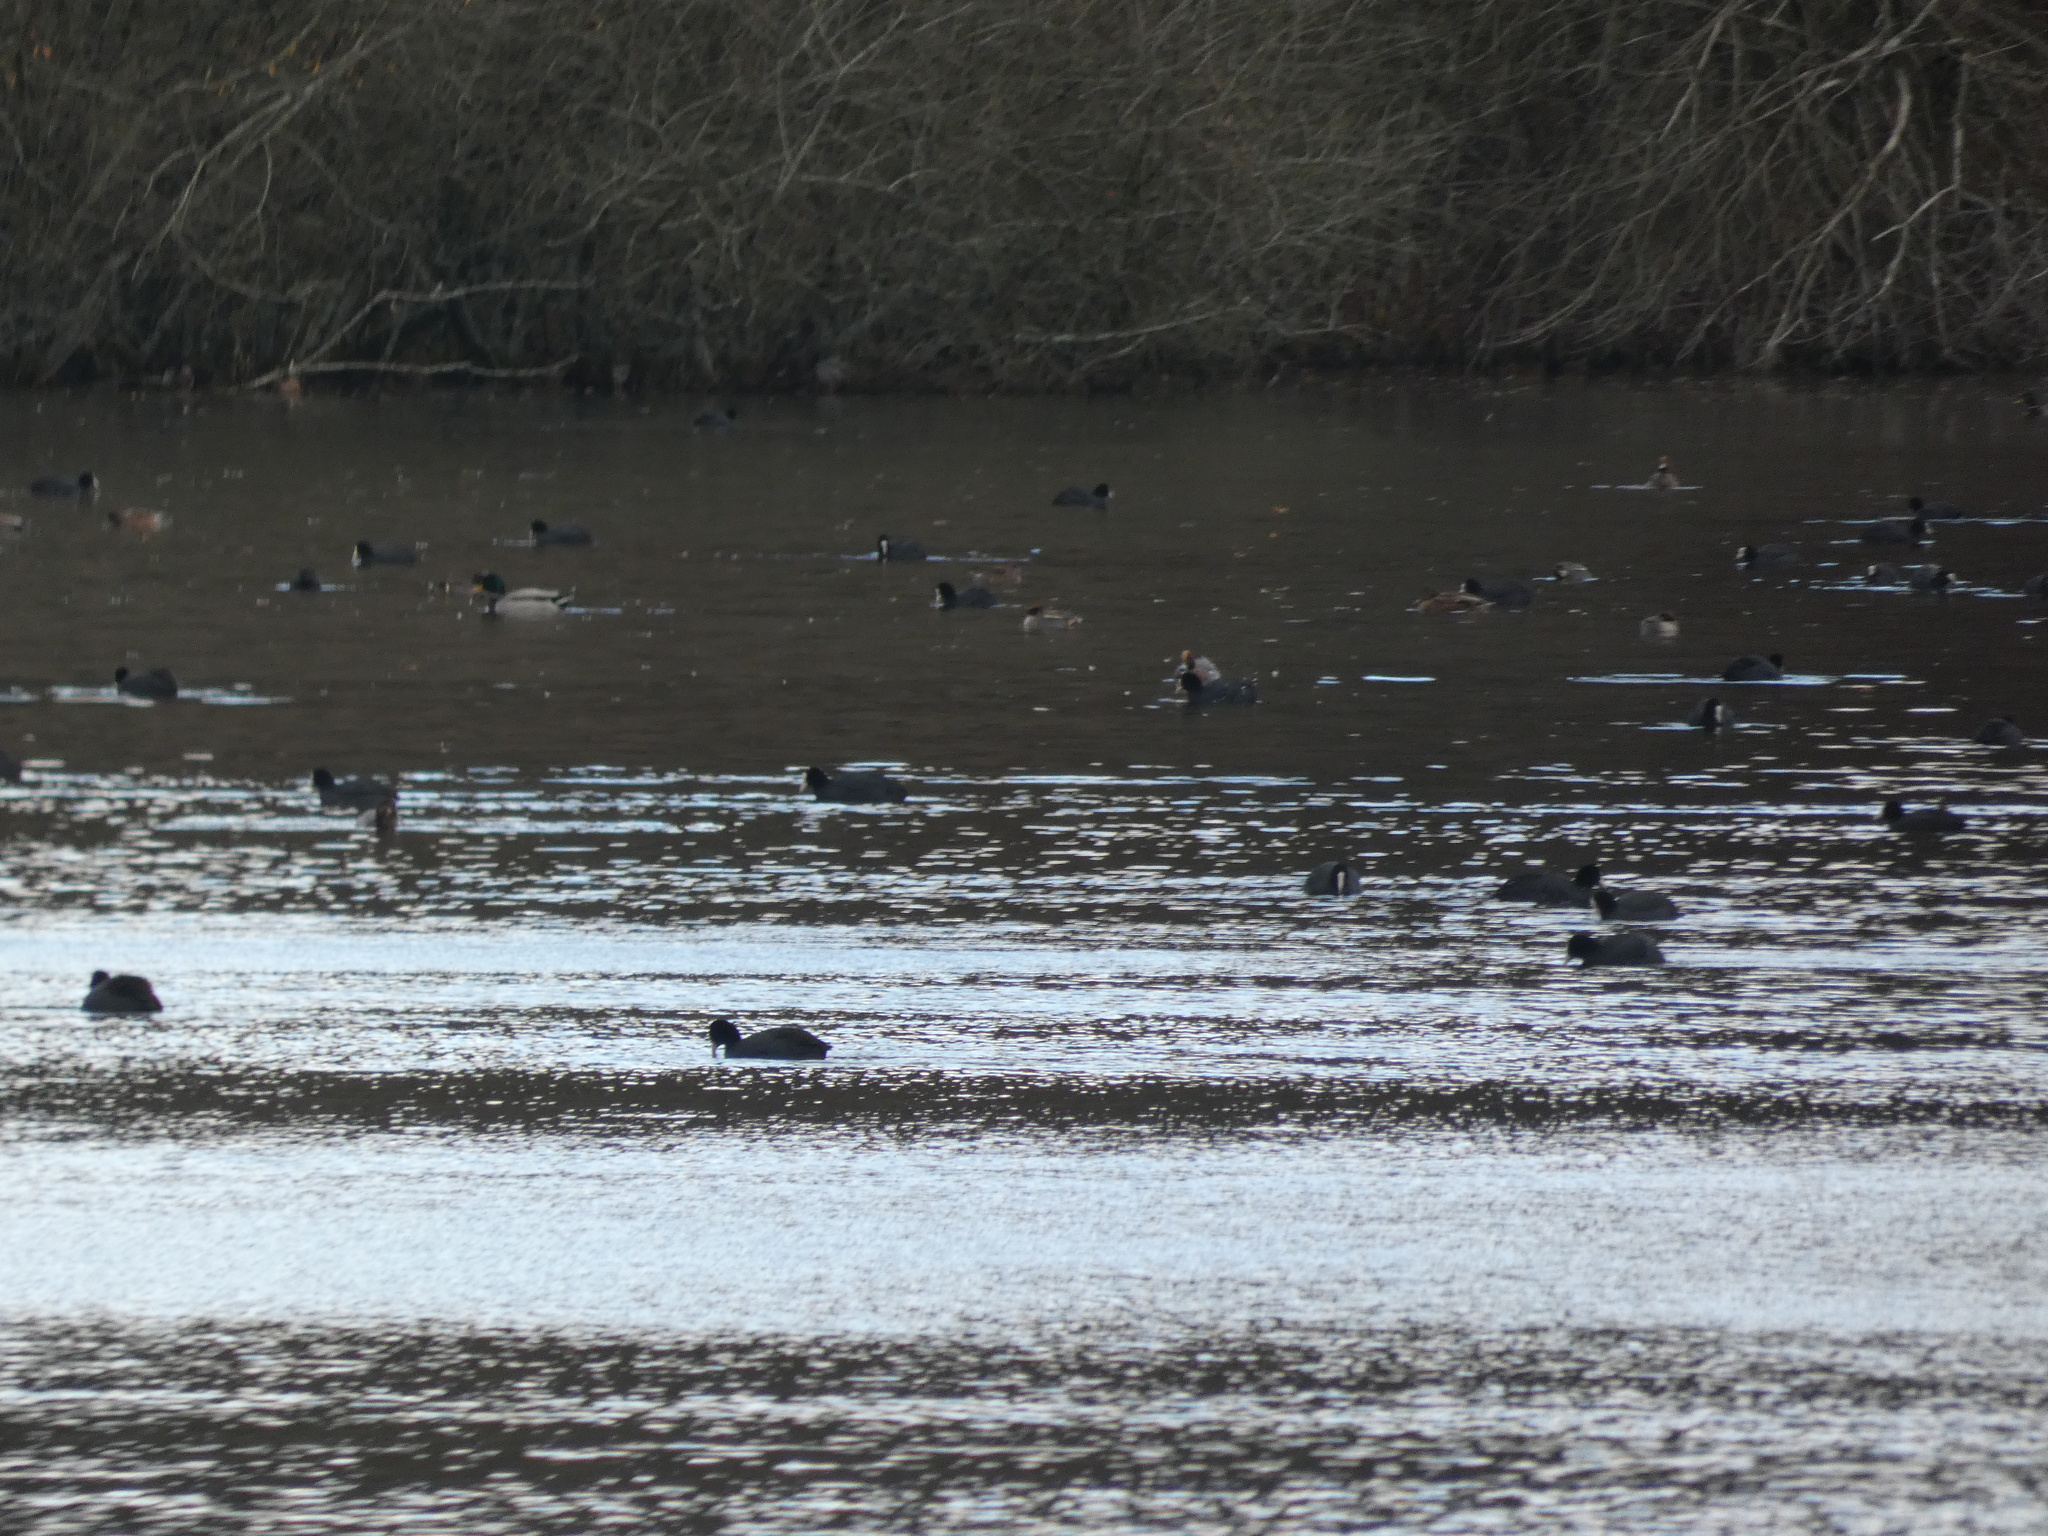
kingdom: Animalia
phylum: Chordata
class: Aves
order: Anseriformes
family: Anatidae
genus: Mareca
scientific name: Mareca penelope
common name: Eurasian wigeon
